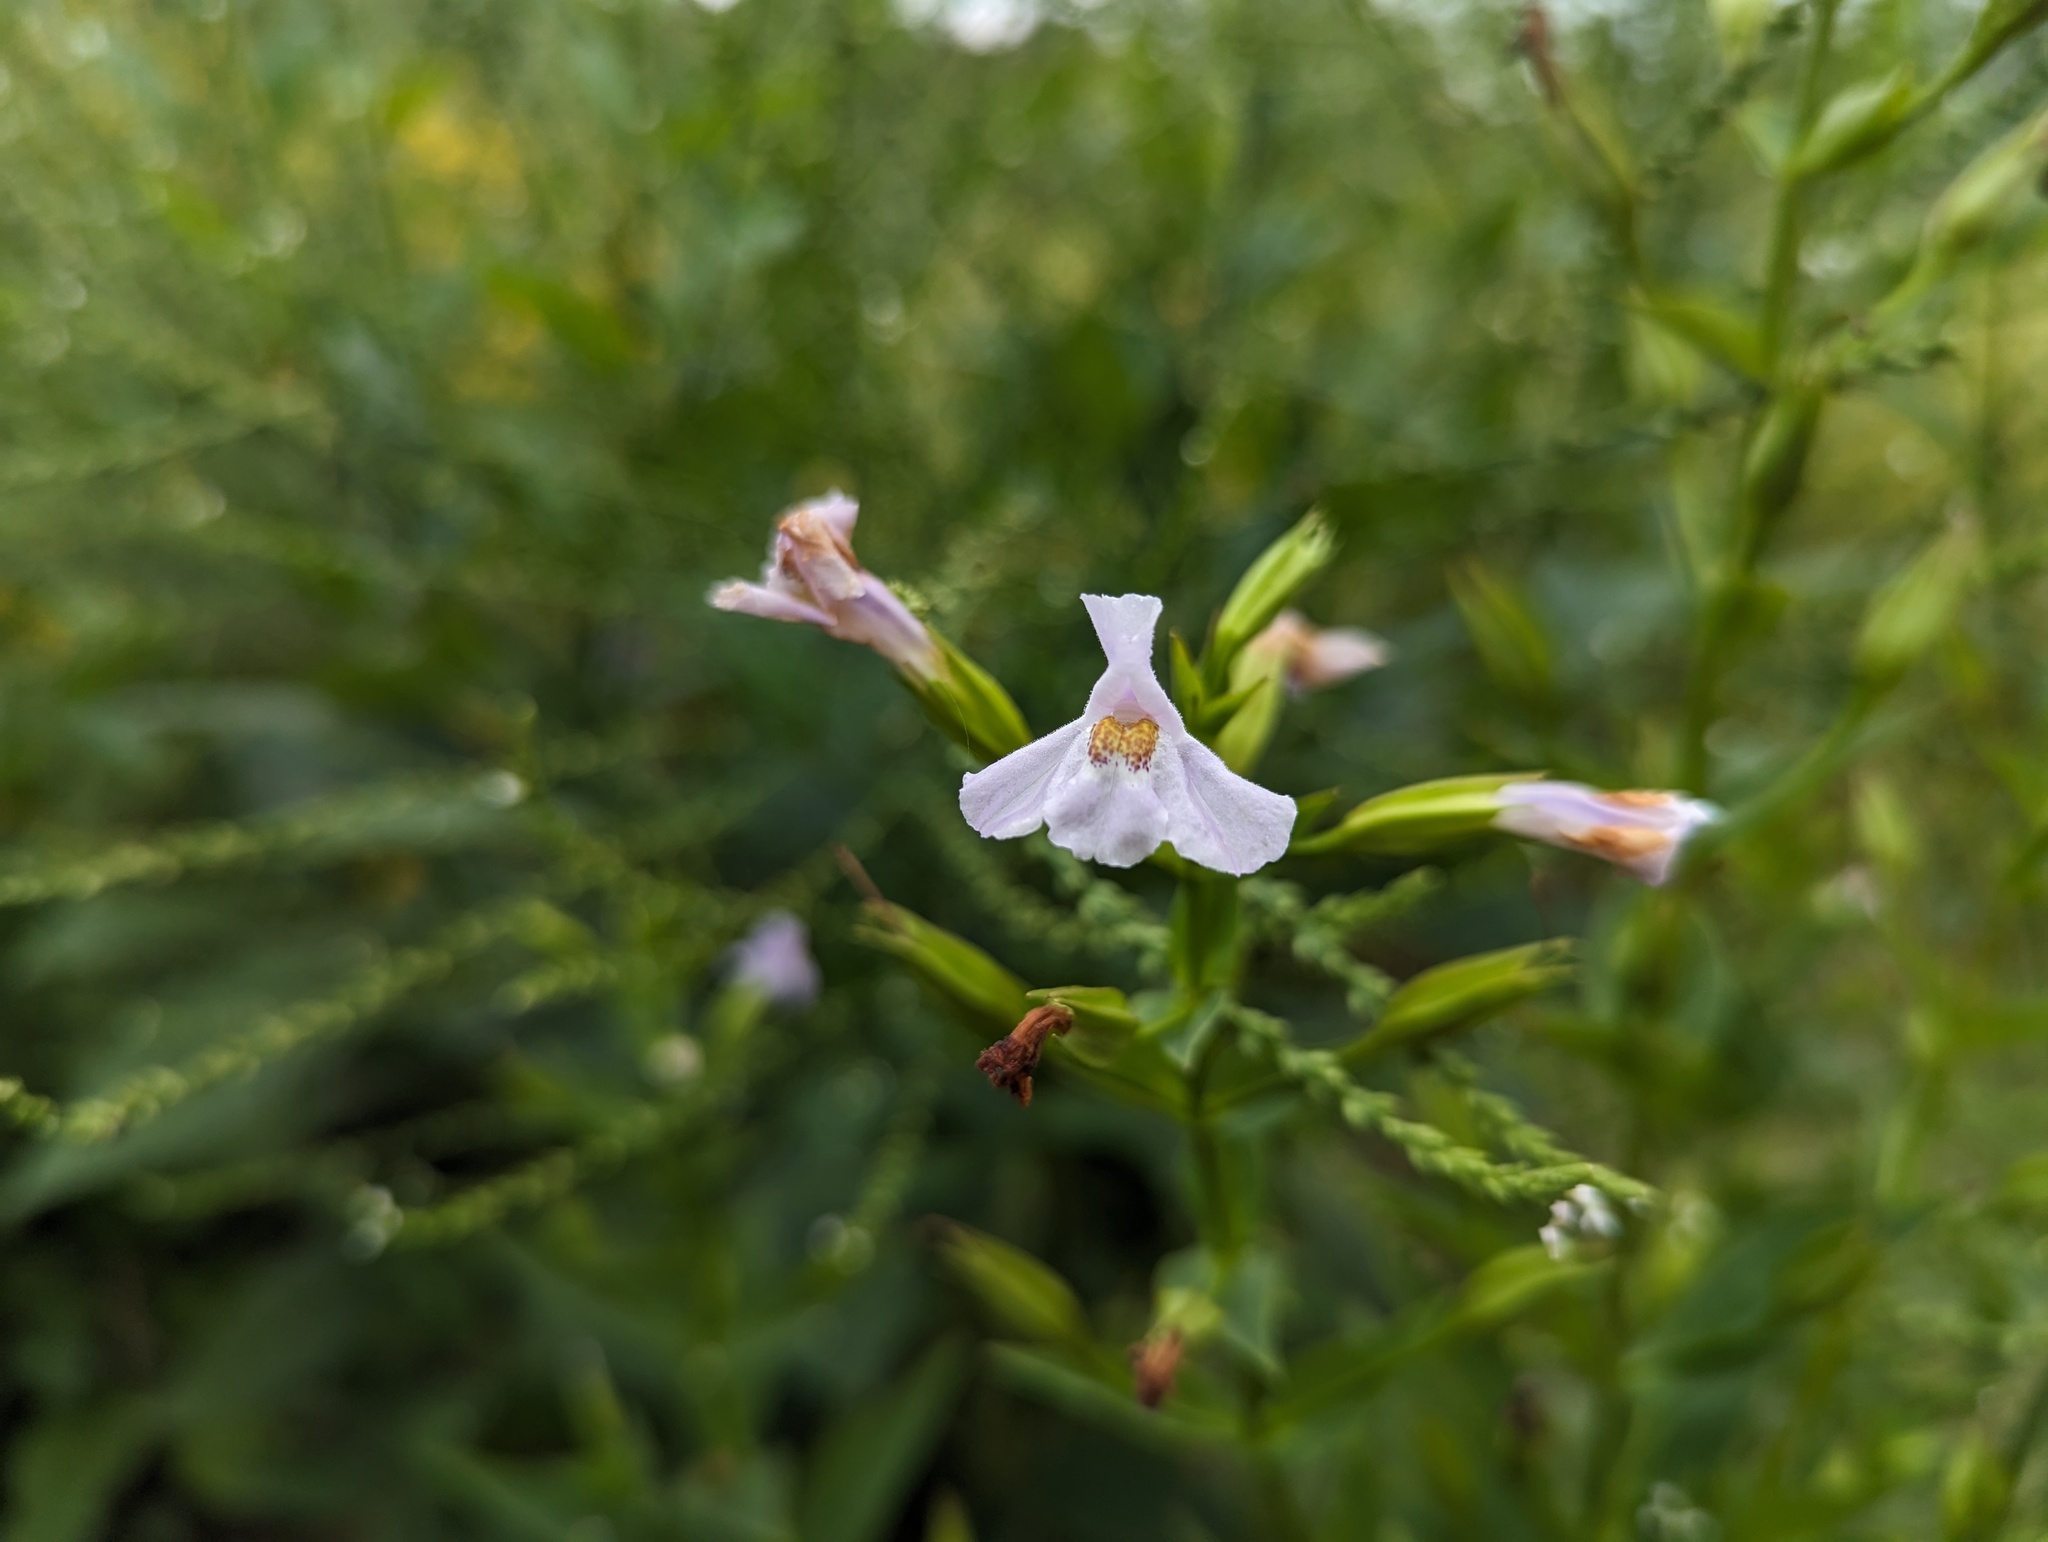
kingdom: Plantae
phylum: Tracheophyta
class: Magnoliopsida
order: Lamiales
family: Phrymaceae
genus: Mimulus
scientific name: Mimulus ringens
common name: Allegheny monkeyflower
